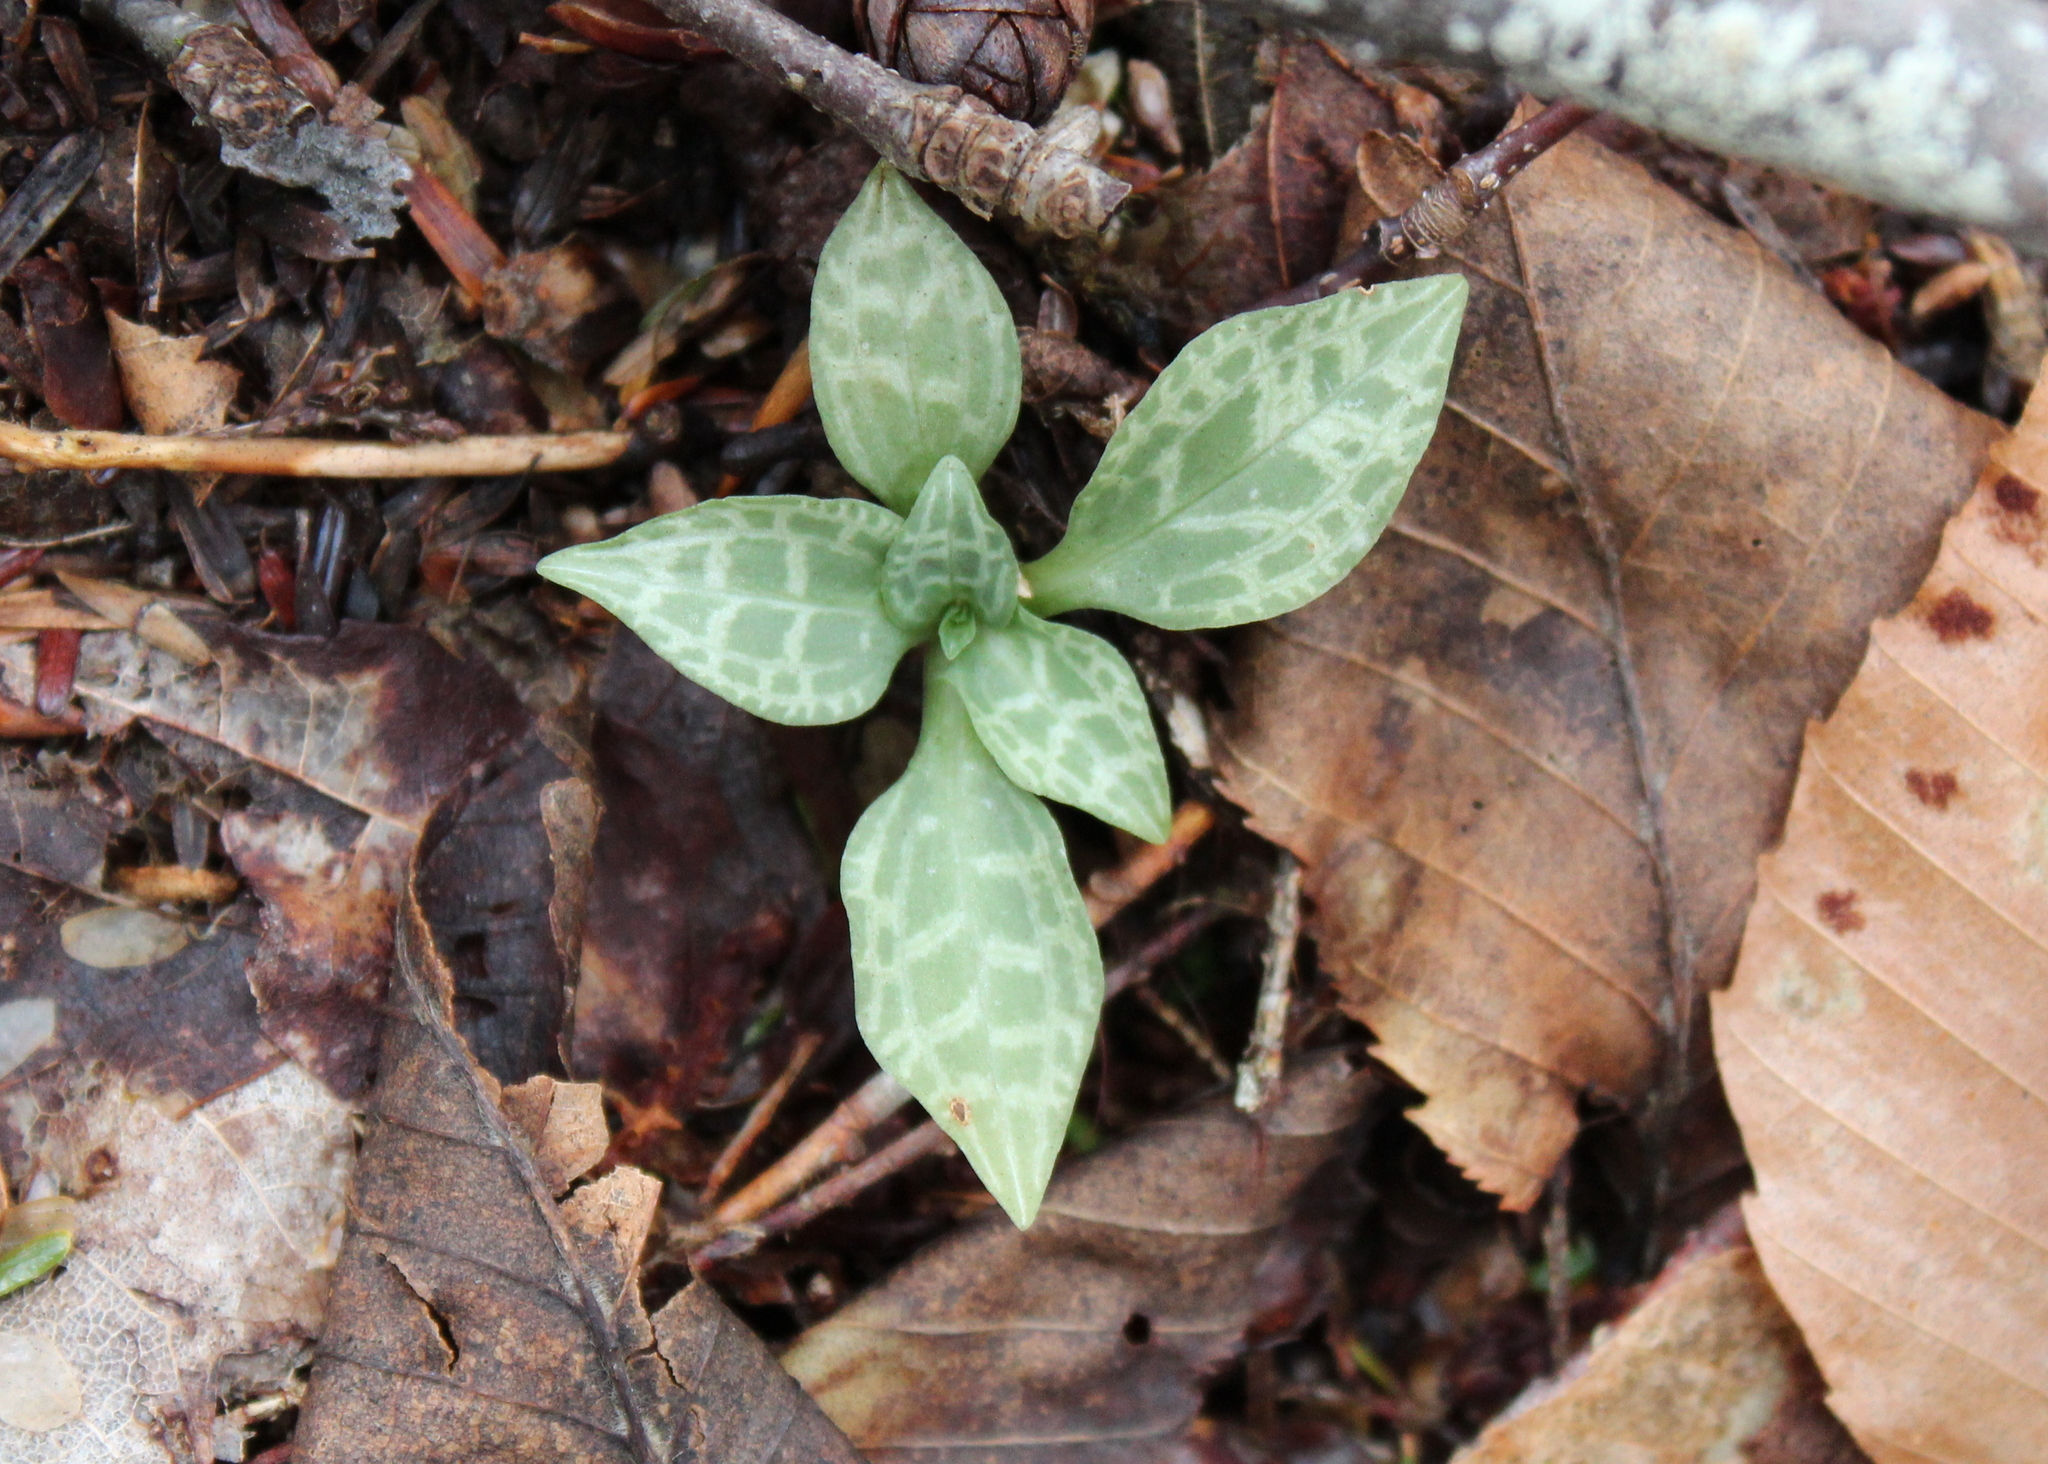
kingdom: Plantae
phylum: Tracheophyta
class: Liliopsida
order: Asparagales
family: Orchidaceae
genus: Goodyera
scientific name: Goodyera tesselata
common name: Checkered rattlesnake-plantain
